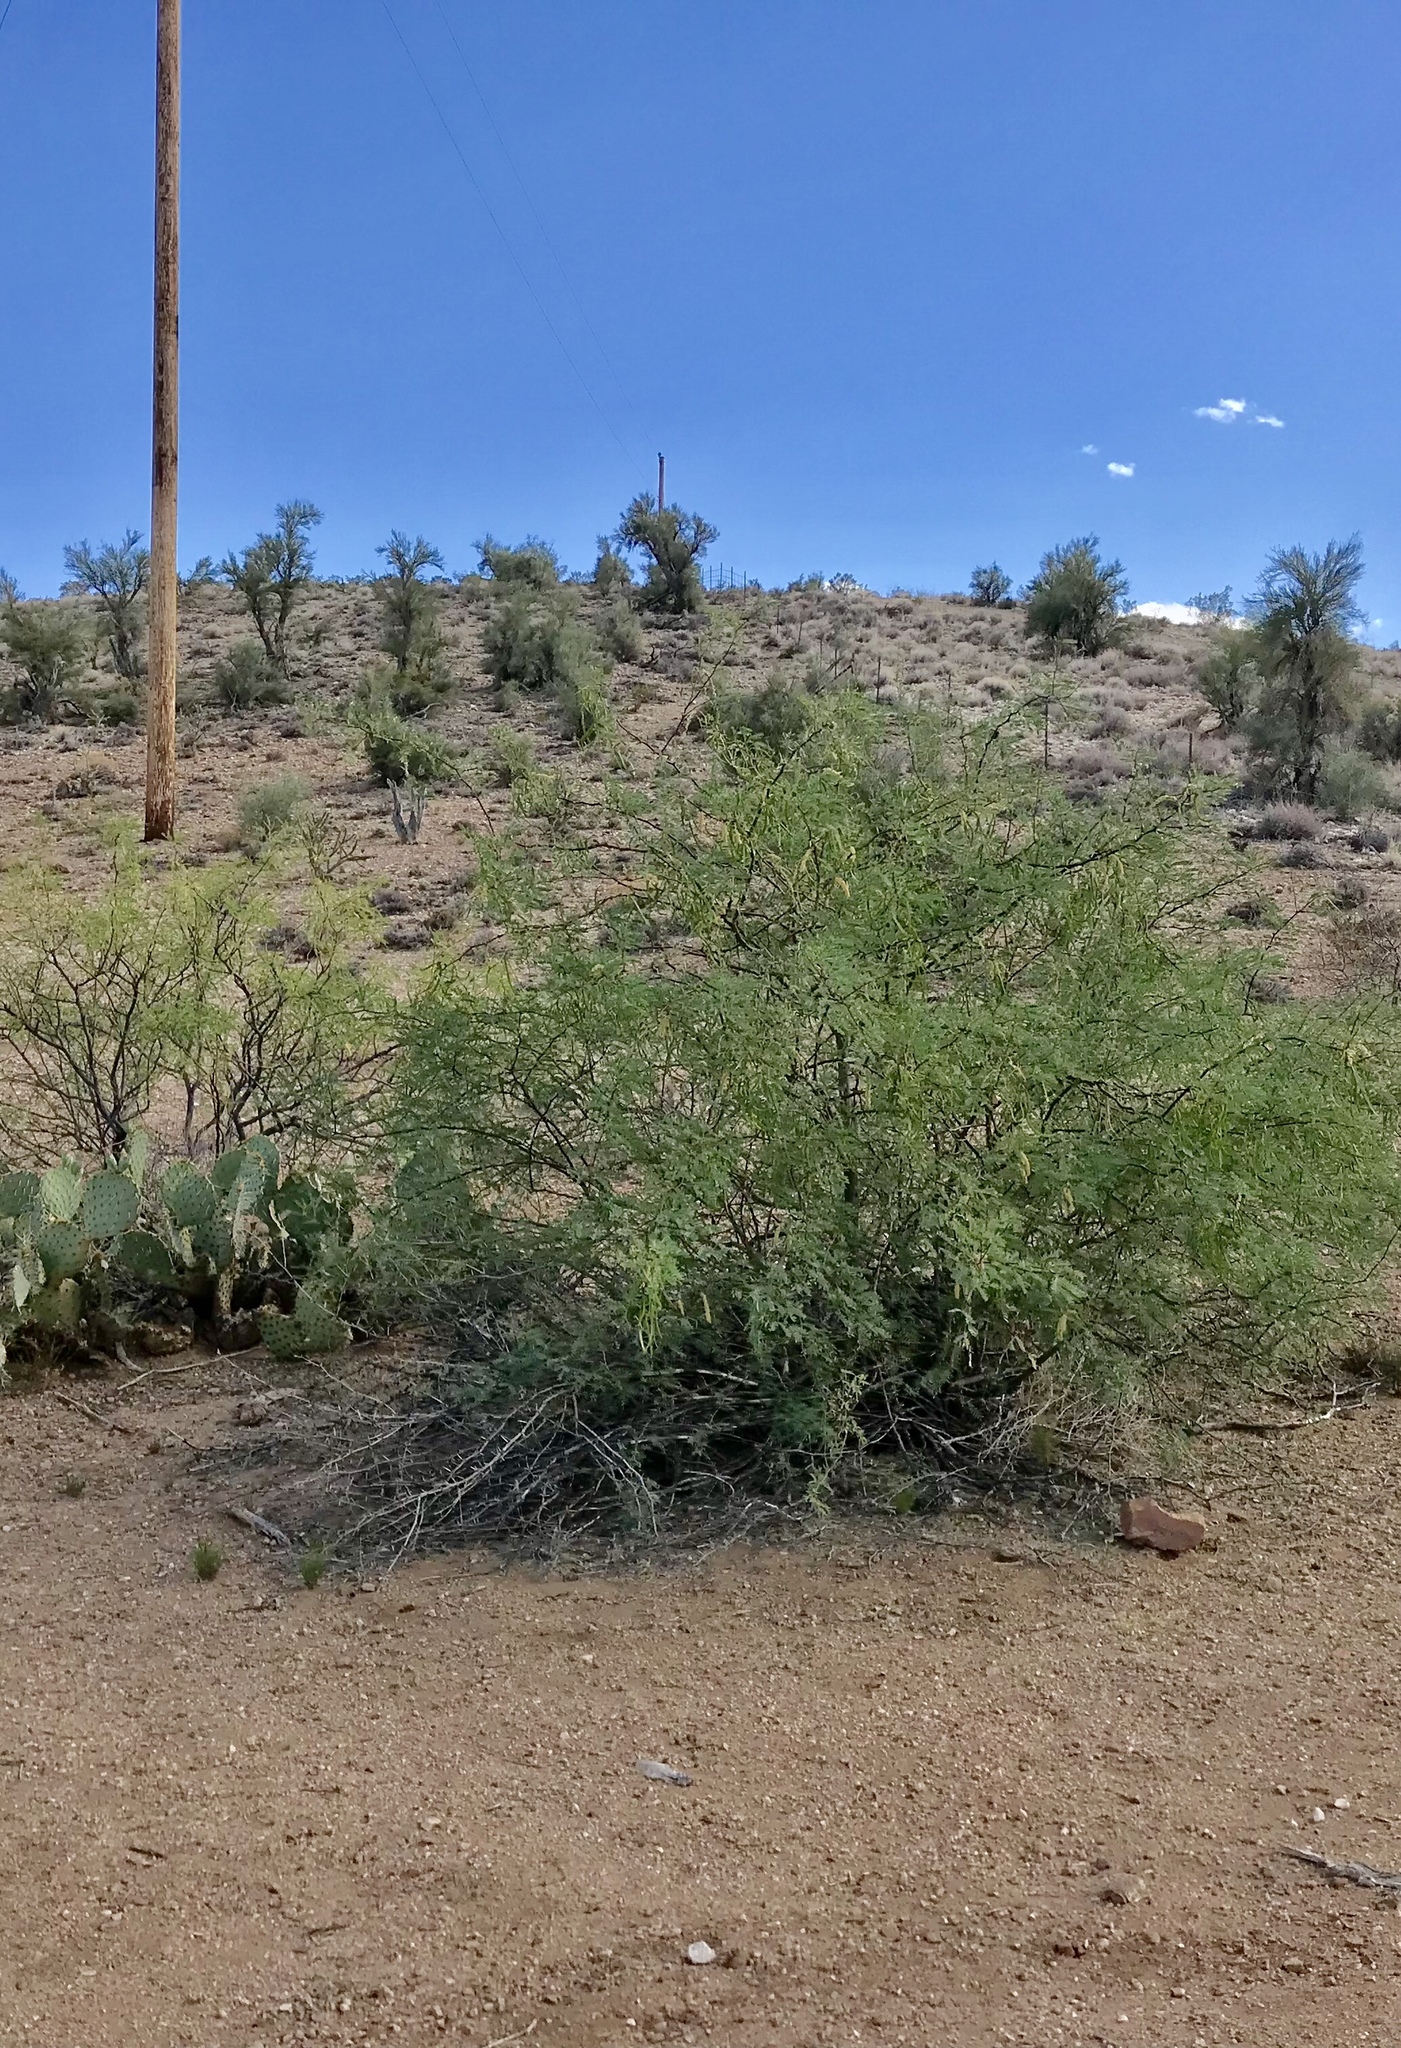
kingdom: Plantae
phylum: Tracheophyta
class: Magnoliopsida
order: Fabales
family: Fabaceae
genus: Prosopis
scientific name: Prosopis glandulosa
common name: Honey mesquite
